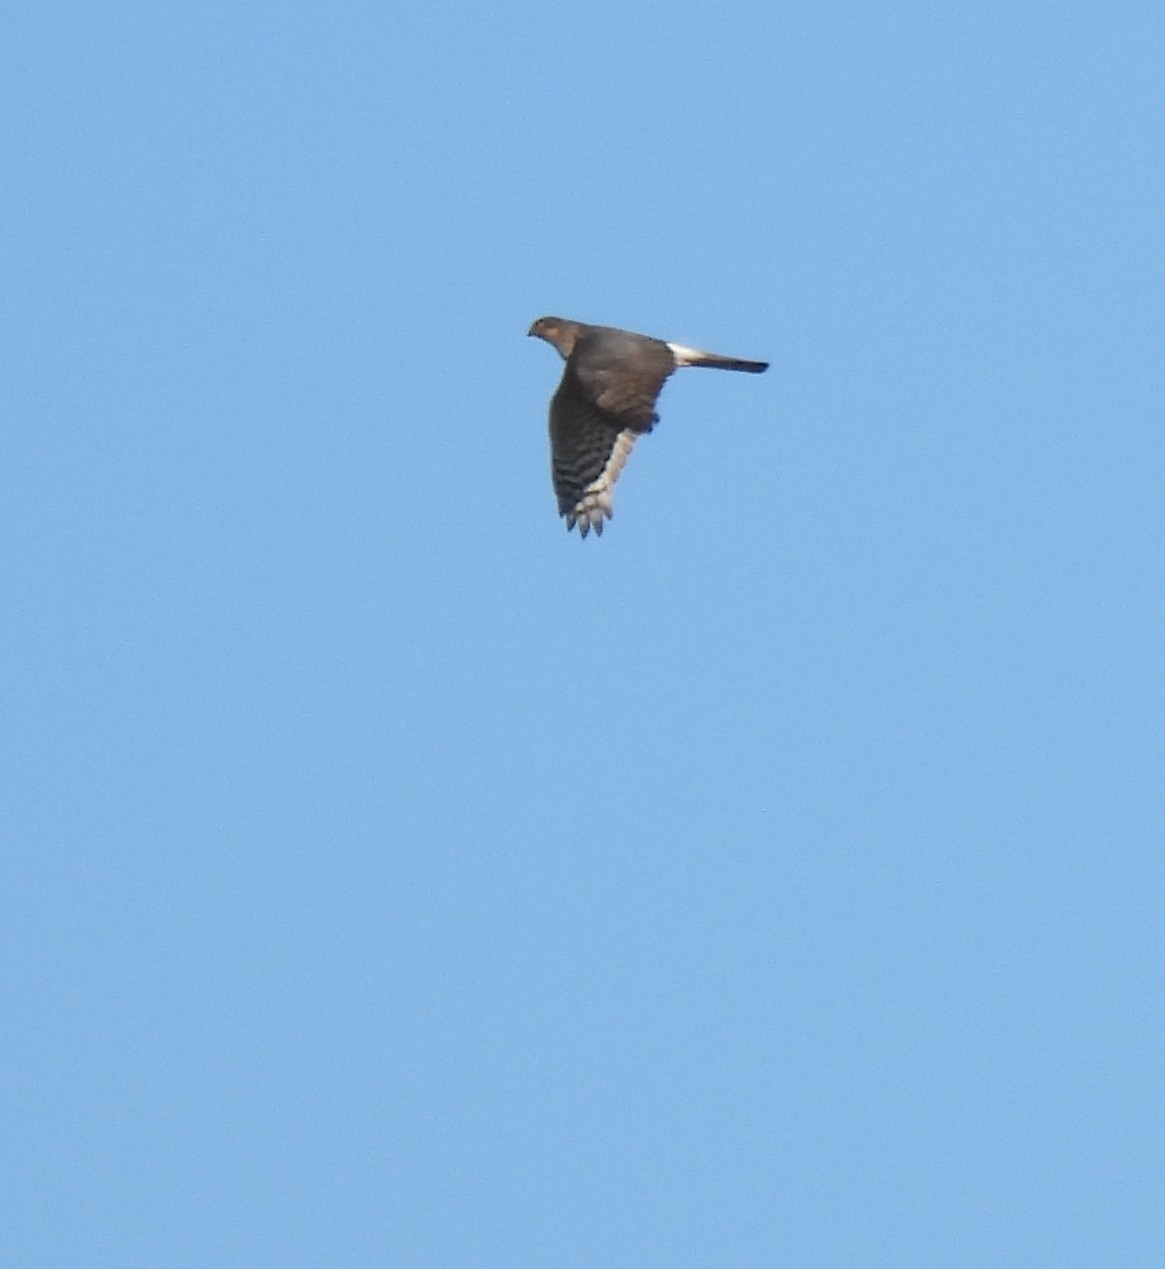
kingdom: Animalia
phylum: Chordata
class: Aves
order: Accipitriformes
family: Accipitridae
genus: Accipiter
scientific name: Accipiter nisus
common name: Eurasian sparrowhawk
